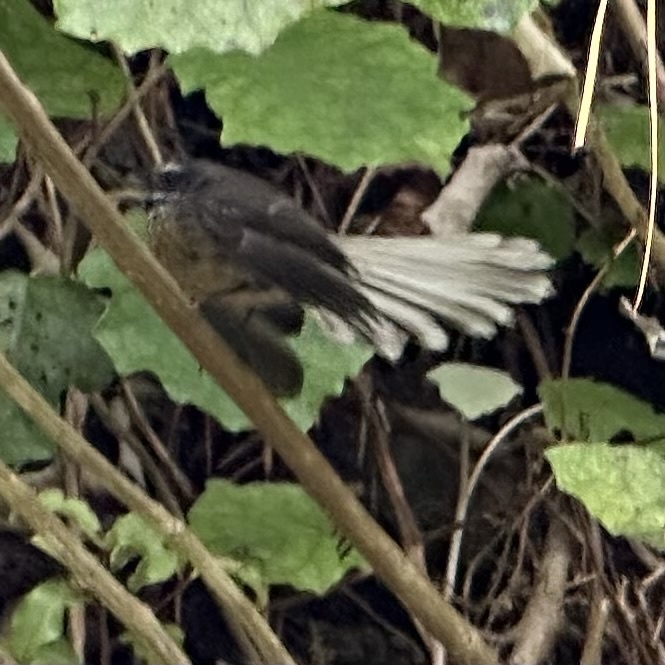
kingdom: Animalia
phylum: Chordata
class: Aves
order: Passeriformes
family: Rhipiduridae
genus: Rhipidura
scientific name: Rhipidura fuliginosa
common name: New zealand fantail
